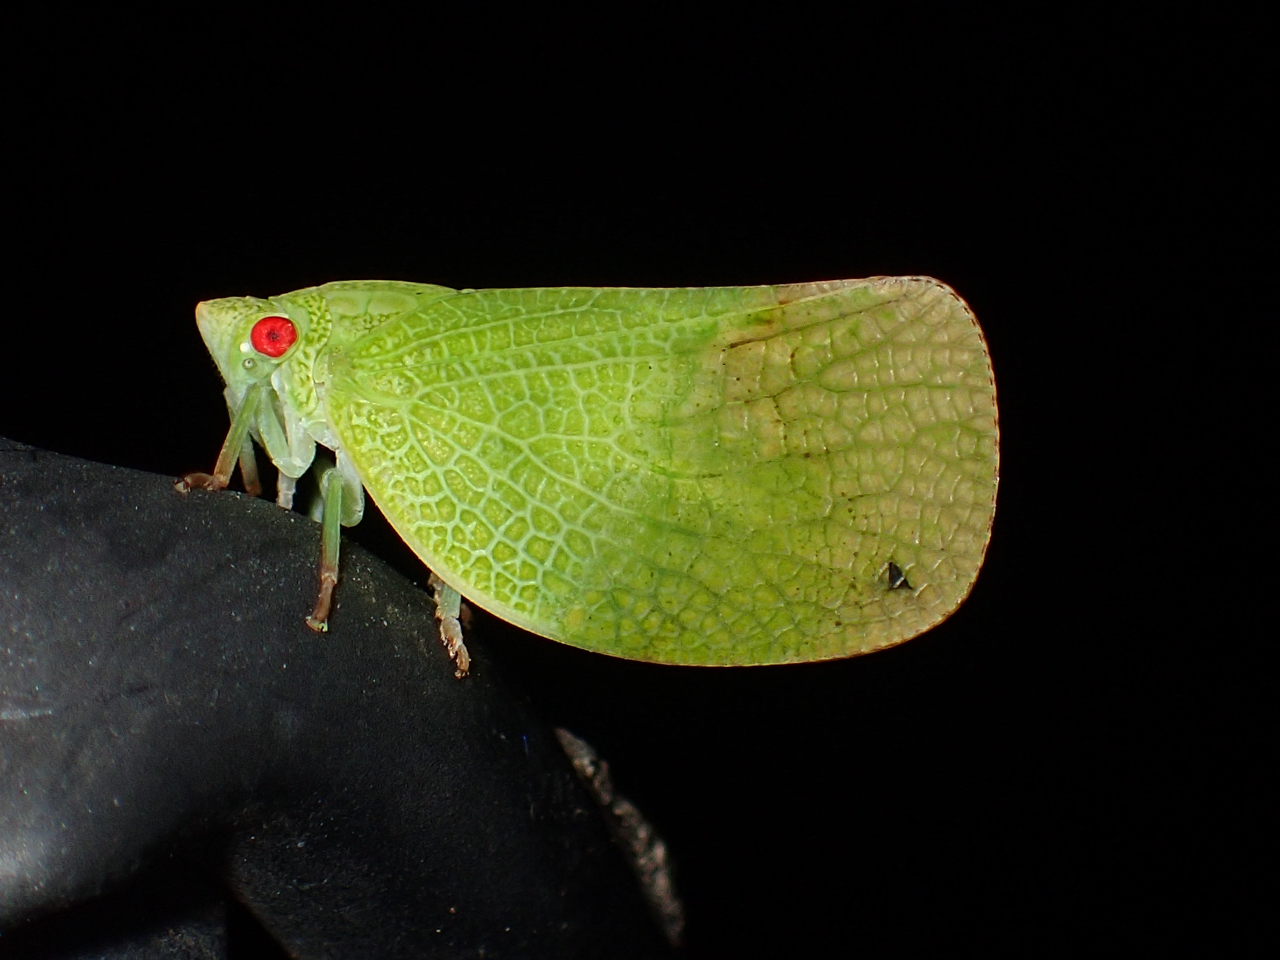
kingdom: Animalia
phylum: Arthropoda
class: Insecta
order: Hemiptera
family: Acanaloniidae
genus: Acanalonia
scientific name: Acanalonia conica
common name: Green cone-headed planthopper
